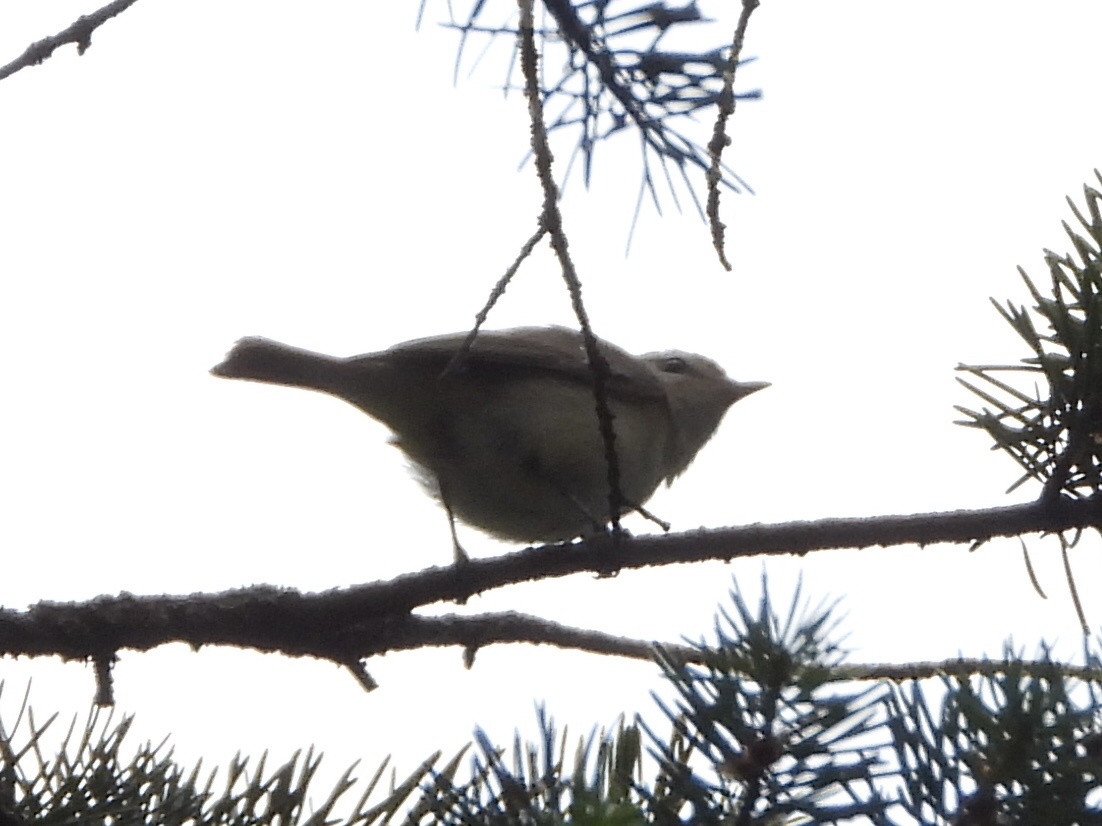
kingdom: Animalia
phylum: Chordata
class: Aves
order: Passeriformes
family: Vireonidae
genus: Vireo
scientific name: Vireo gilvus
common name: Warbling vireo
